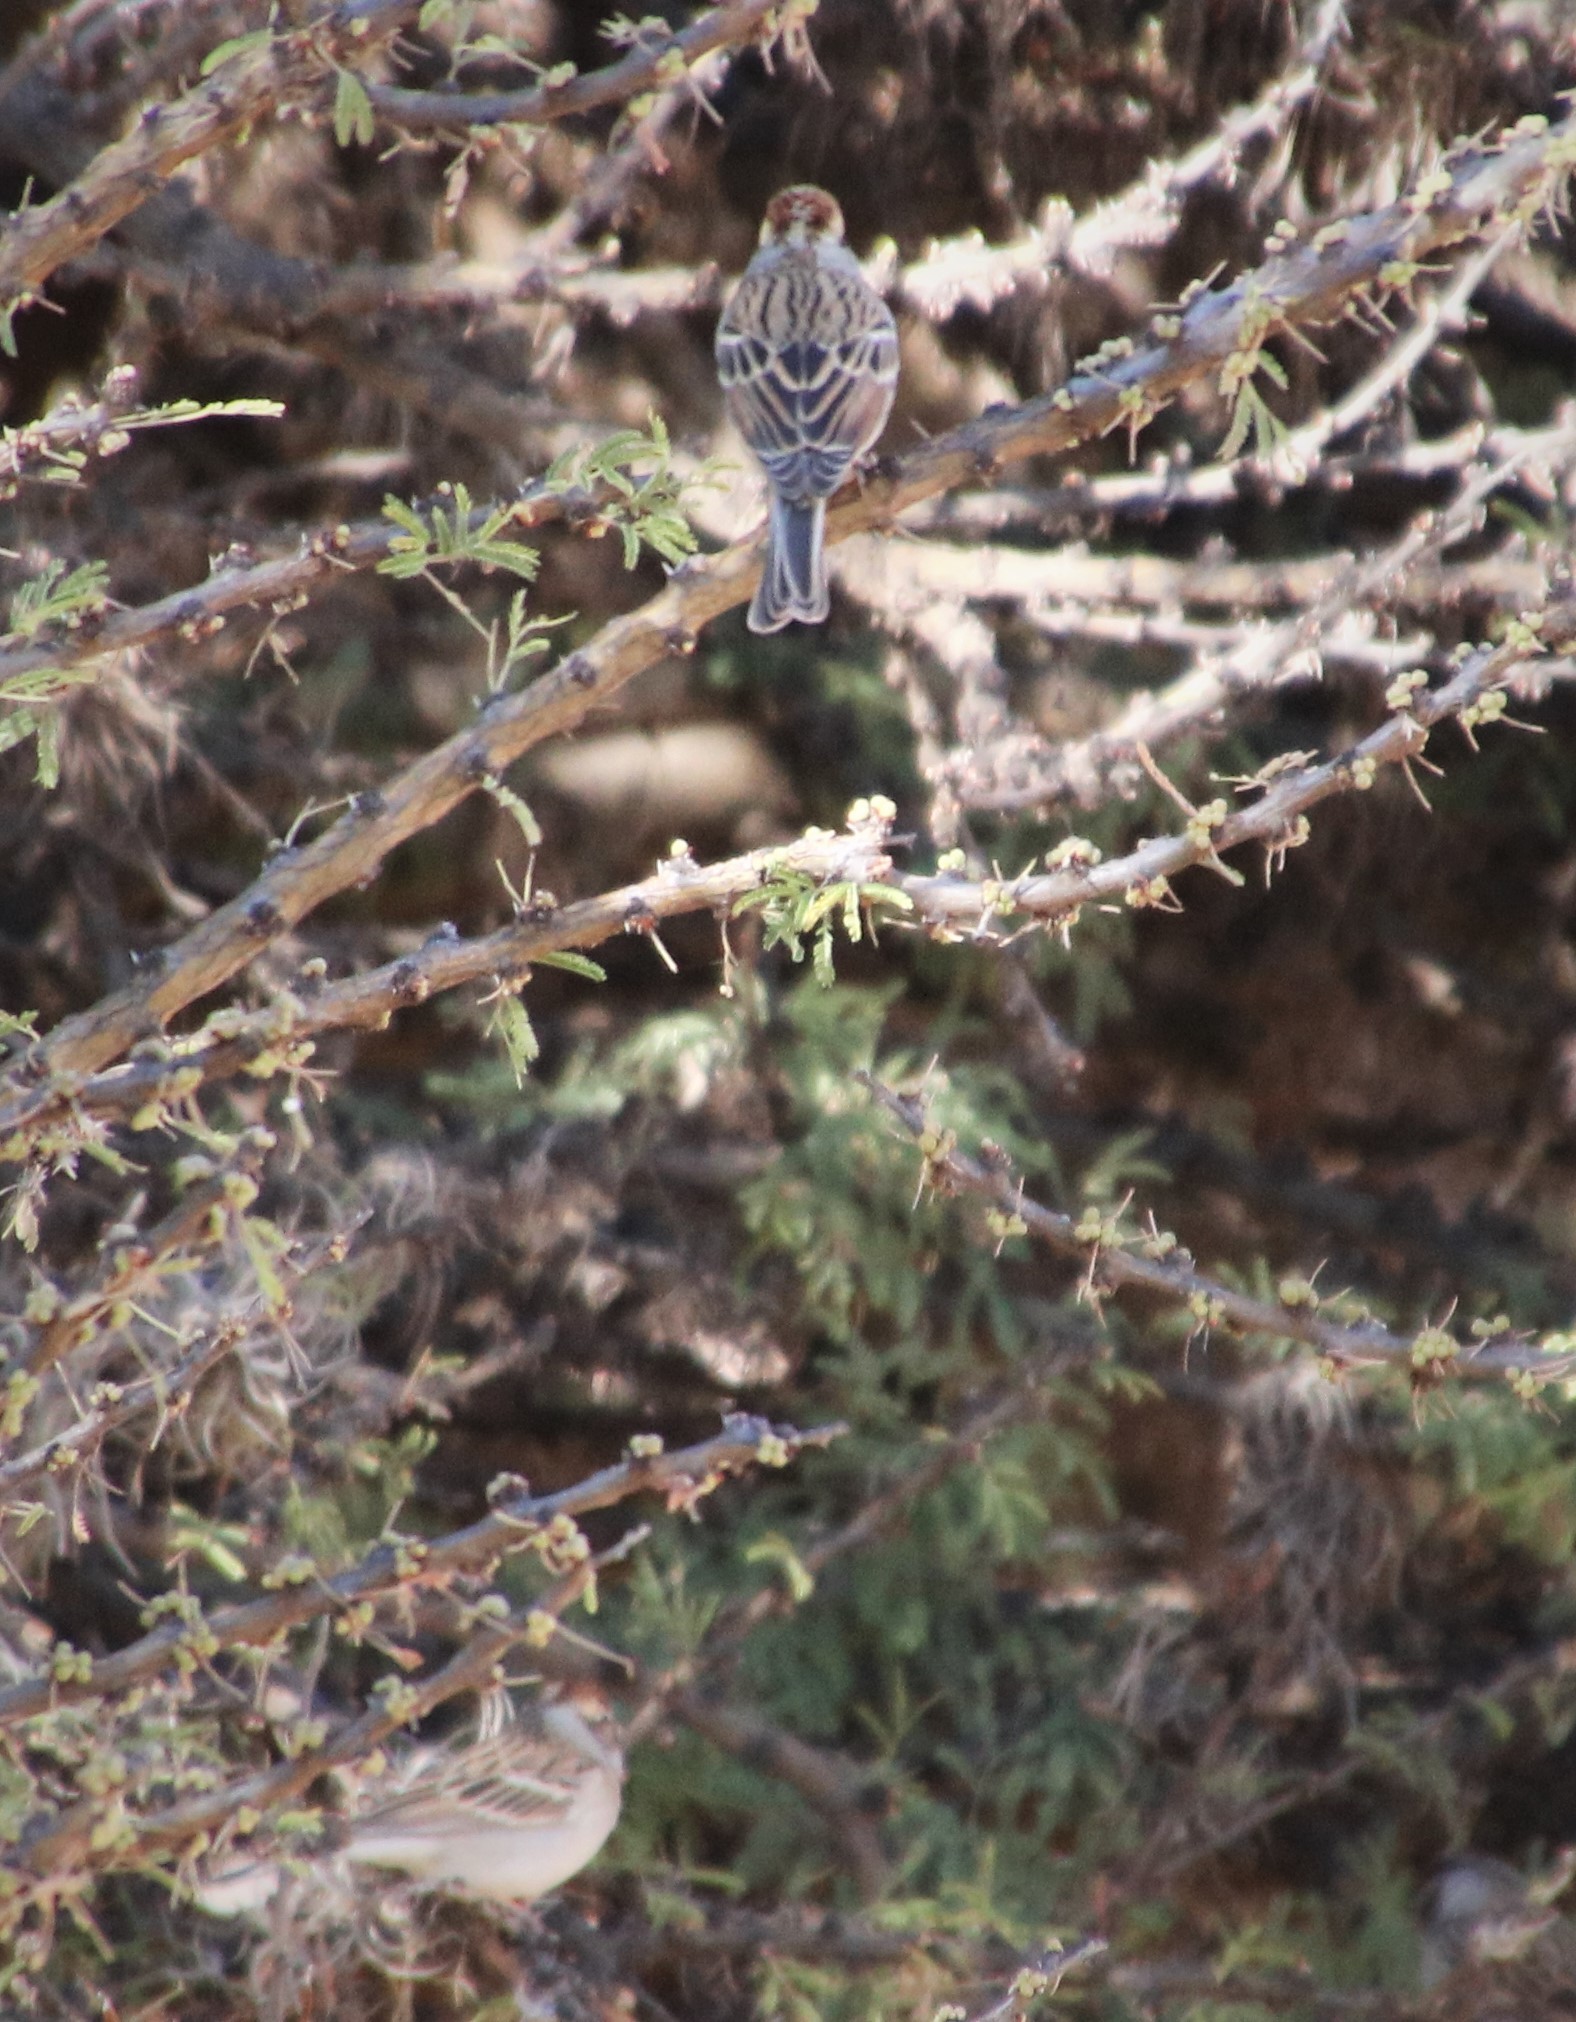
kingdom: Animalia
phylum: Chordata
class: Aves
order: Passeriformes
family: Passerellidae
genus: Spizella
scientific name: Spizella passerina
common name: Chipping sparrow
